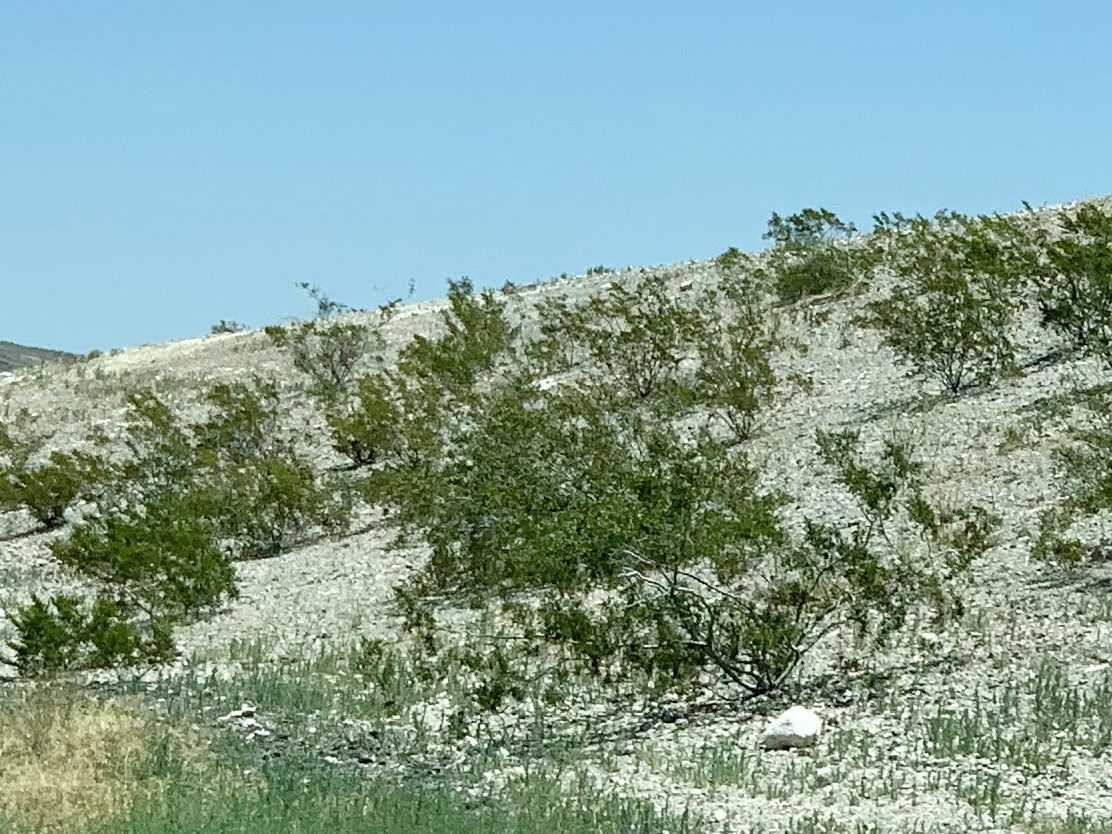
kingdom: Plantae
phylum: Tracheophyta
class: Magnoliopsida
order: Zygophyllales
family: Zygophyllaceae
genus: Larrea
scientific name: Larrea tridentata
